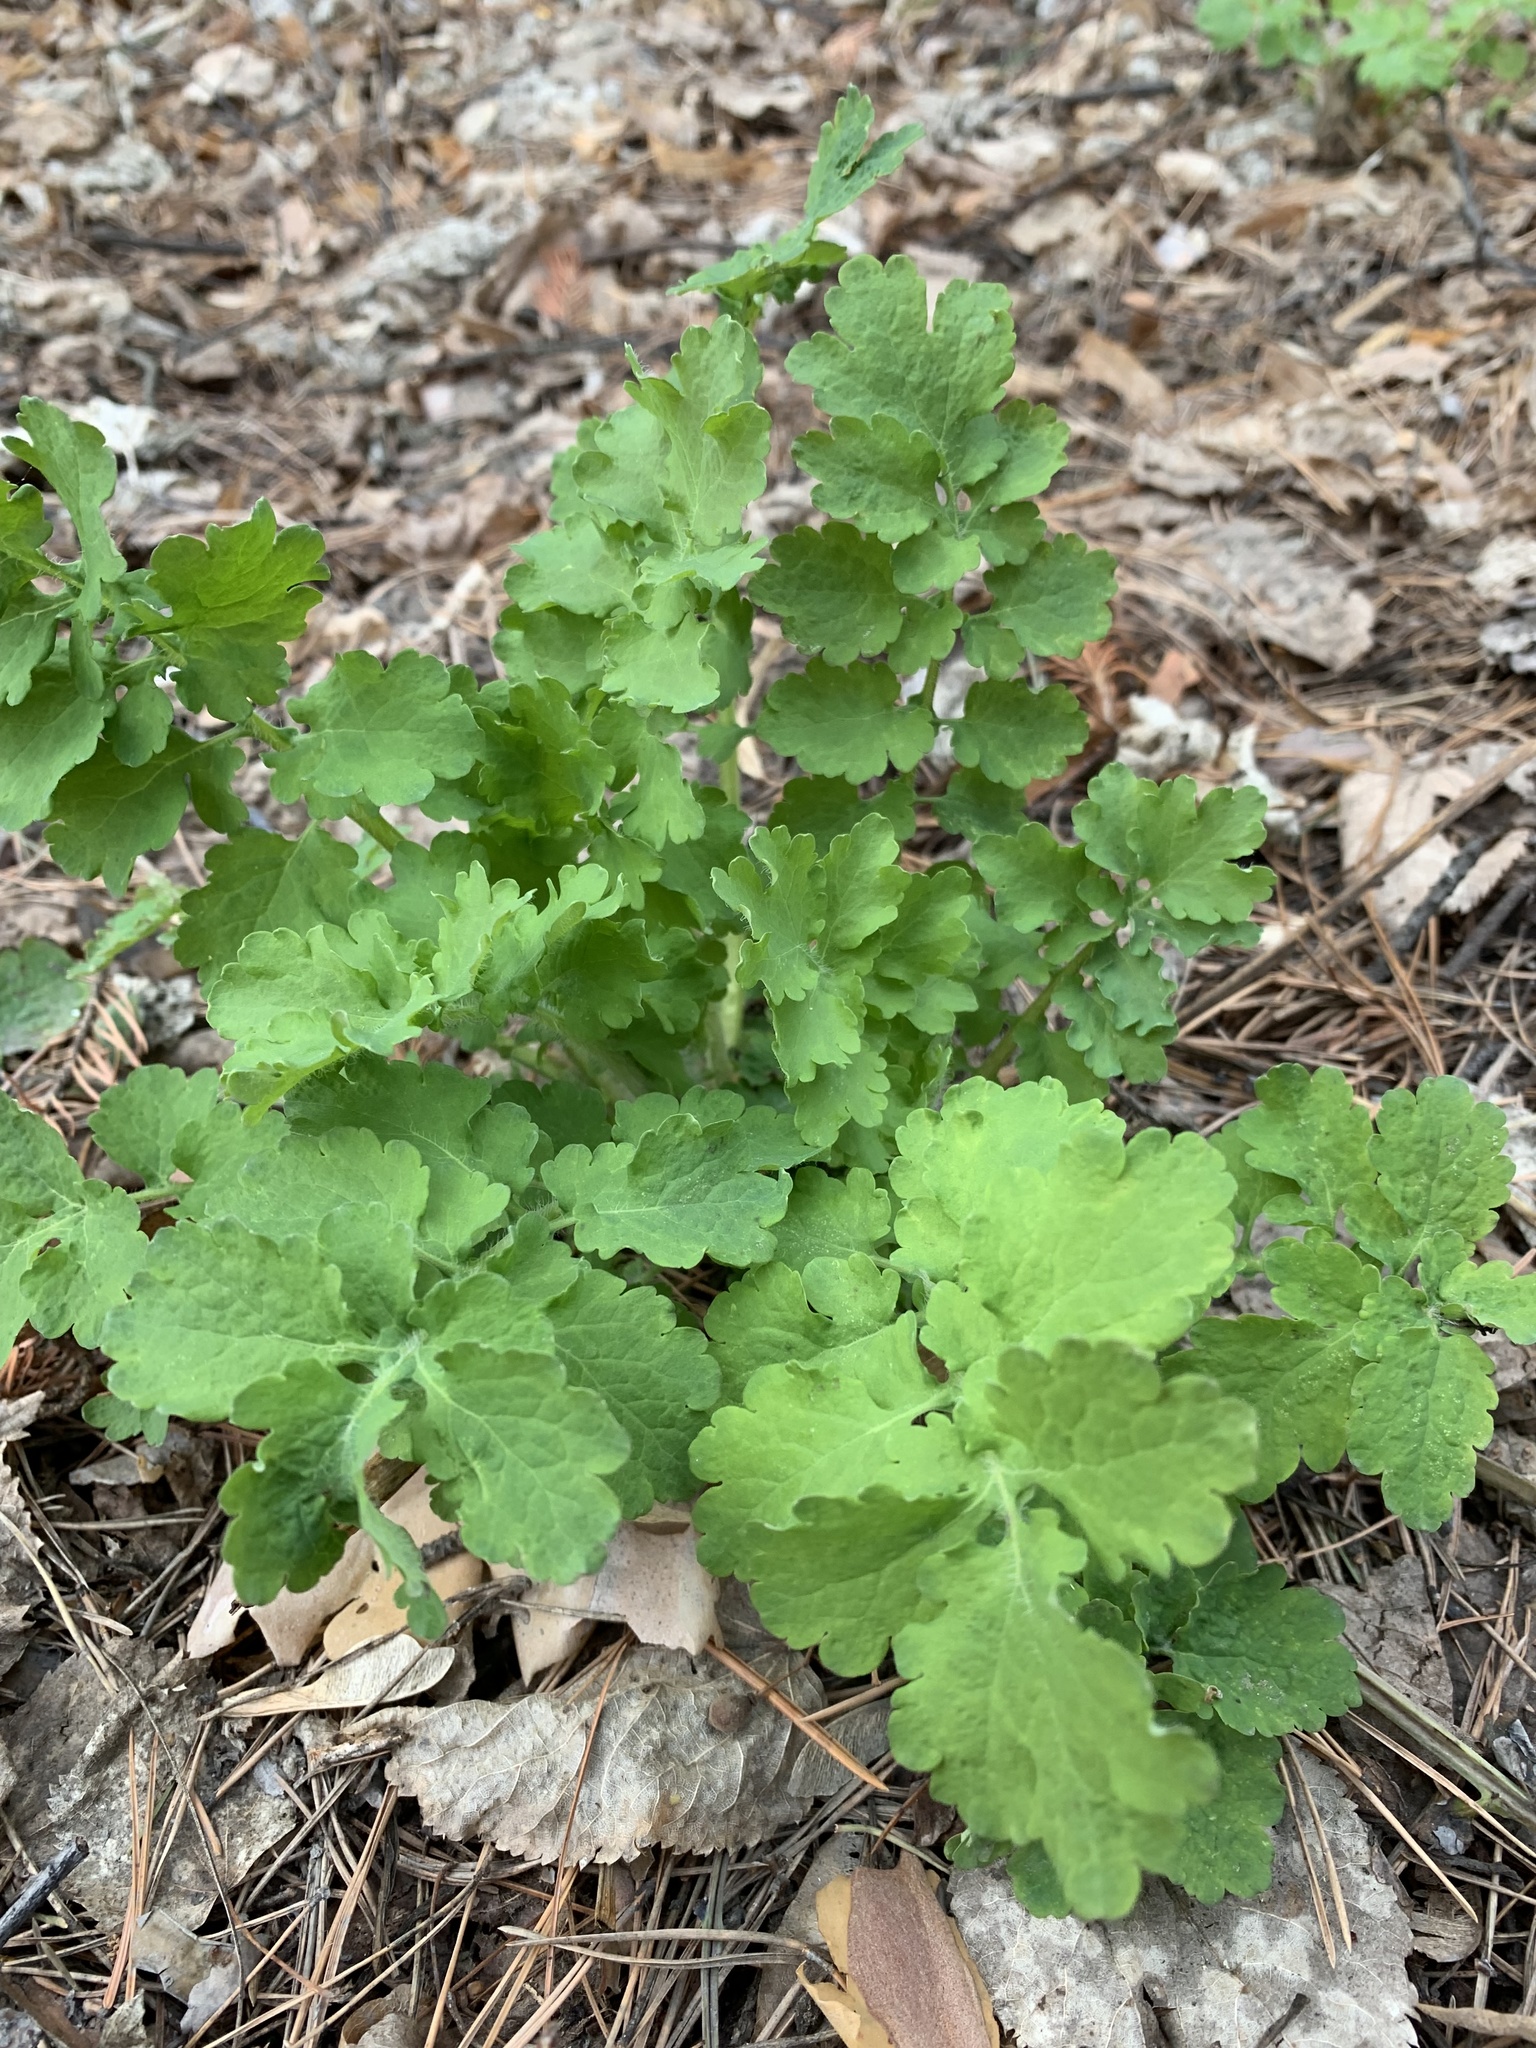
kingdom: Plantae
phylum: Tracheophyta
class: Magnoliopsida
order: Ranunculales
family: Papaveraceae
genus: Chelidonium
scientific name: Chelidonium majus
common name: Greater celandine
